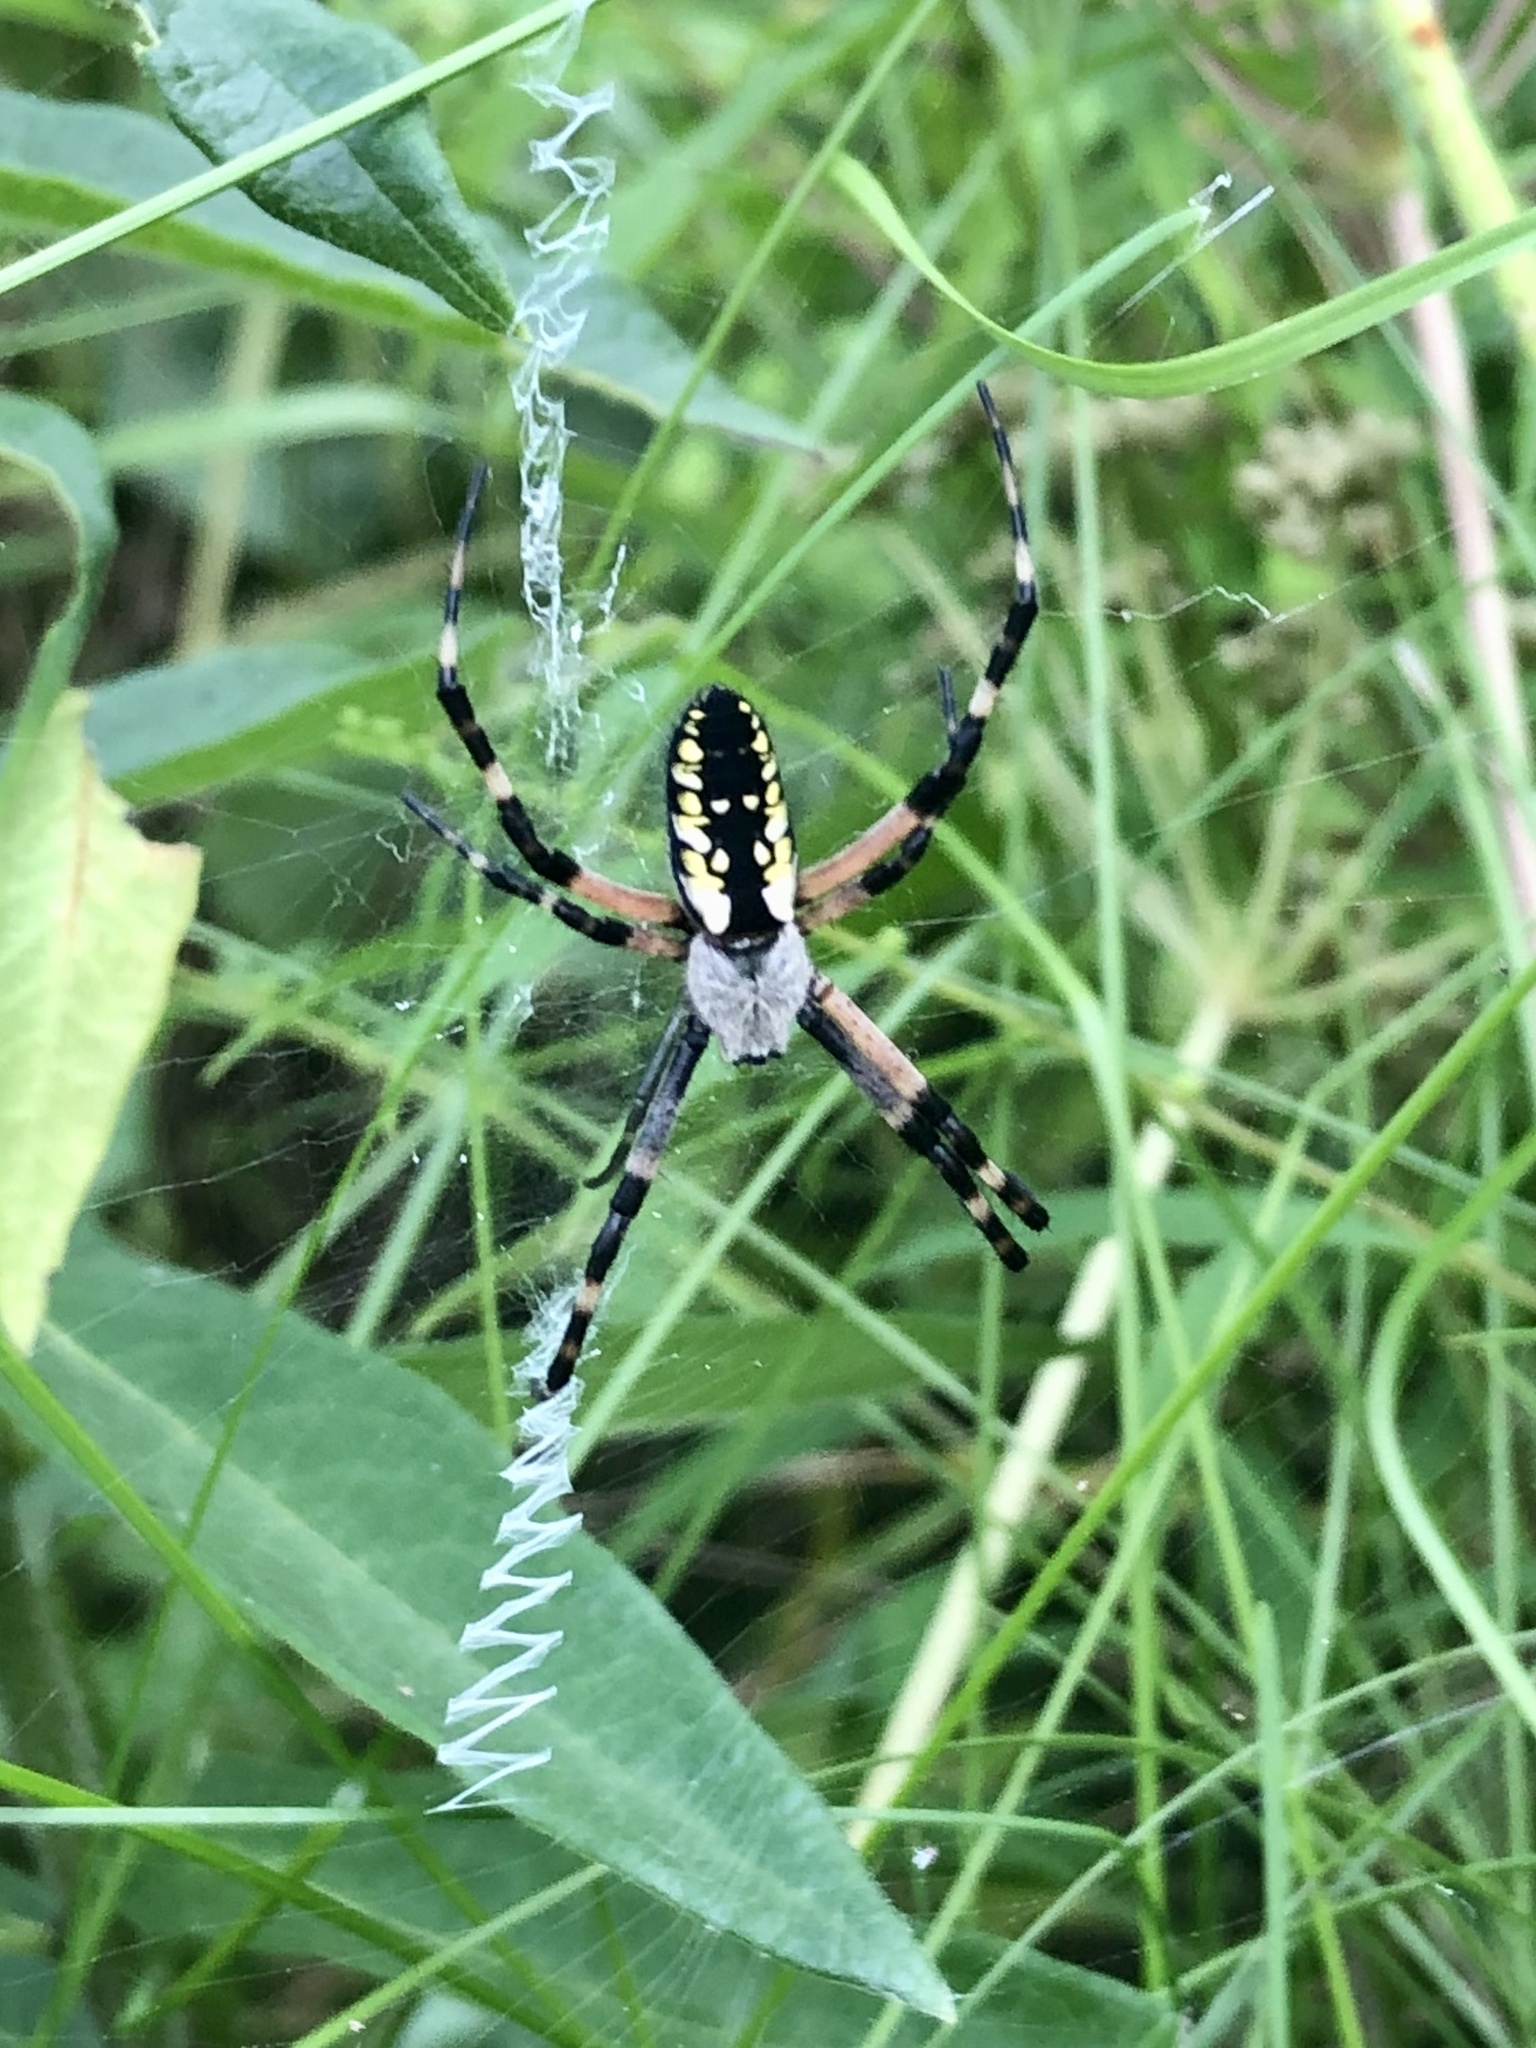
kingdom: Animalia
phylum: Arthropoda
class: Arachnida
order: Araneae
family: Araneidae
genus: Argiope
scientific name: Argiope aurantia
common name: Orb weavers
